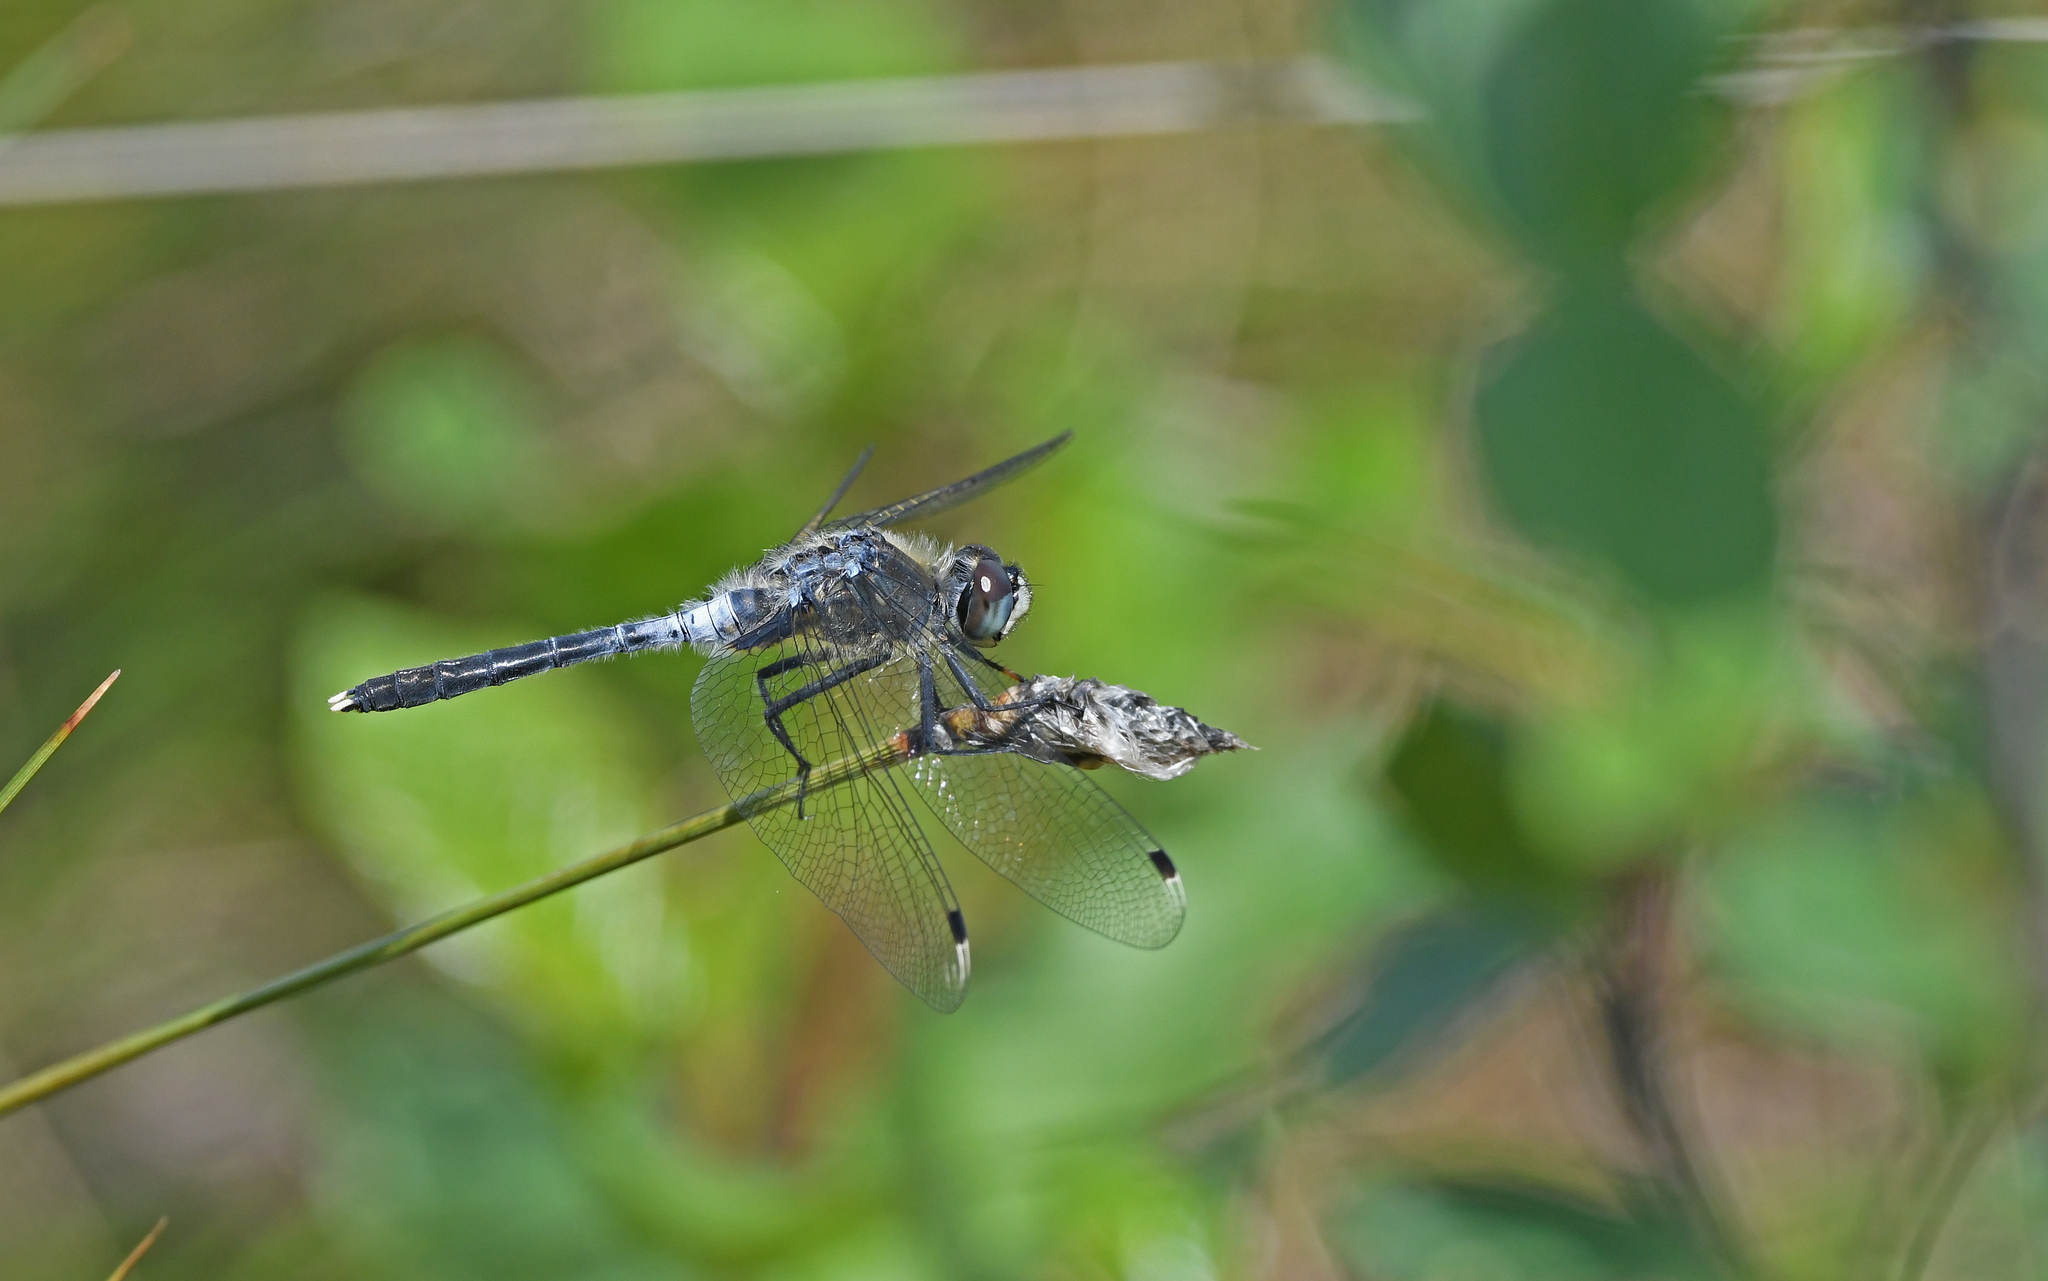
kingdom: Animalia
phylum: Arthropoda
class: Insecta
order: Odonata
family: Libellulidae
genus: Leucorrhinia
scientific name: Leucorrhinia albifrons
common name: Dark whiteface
